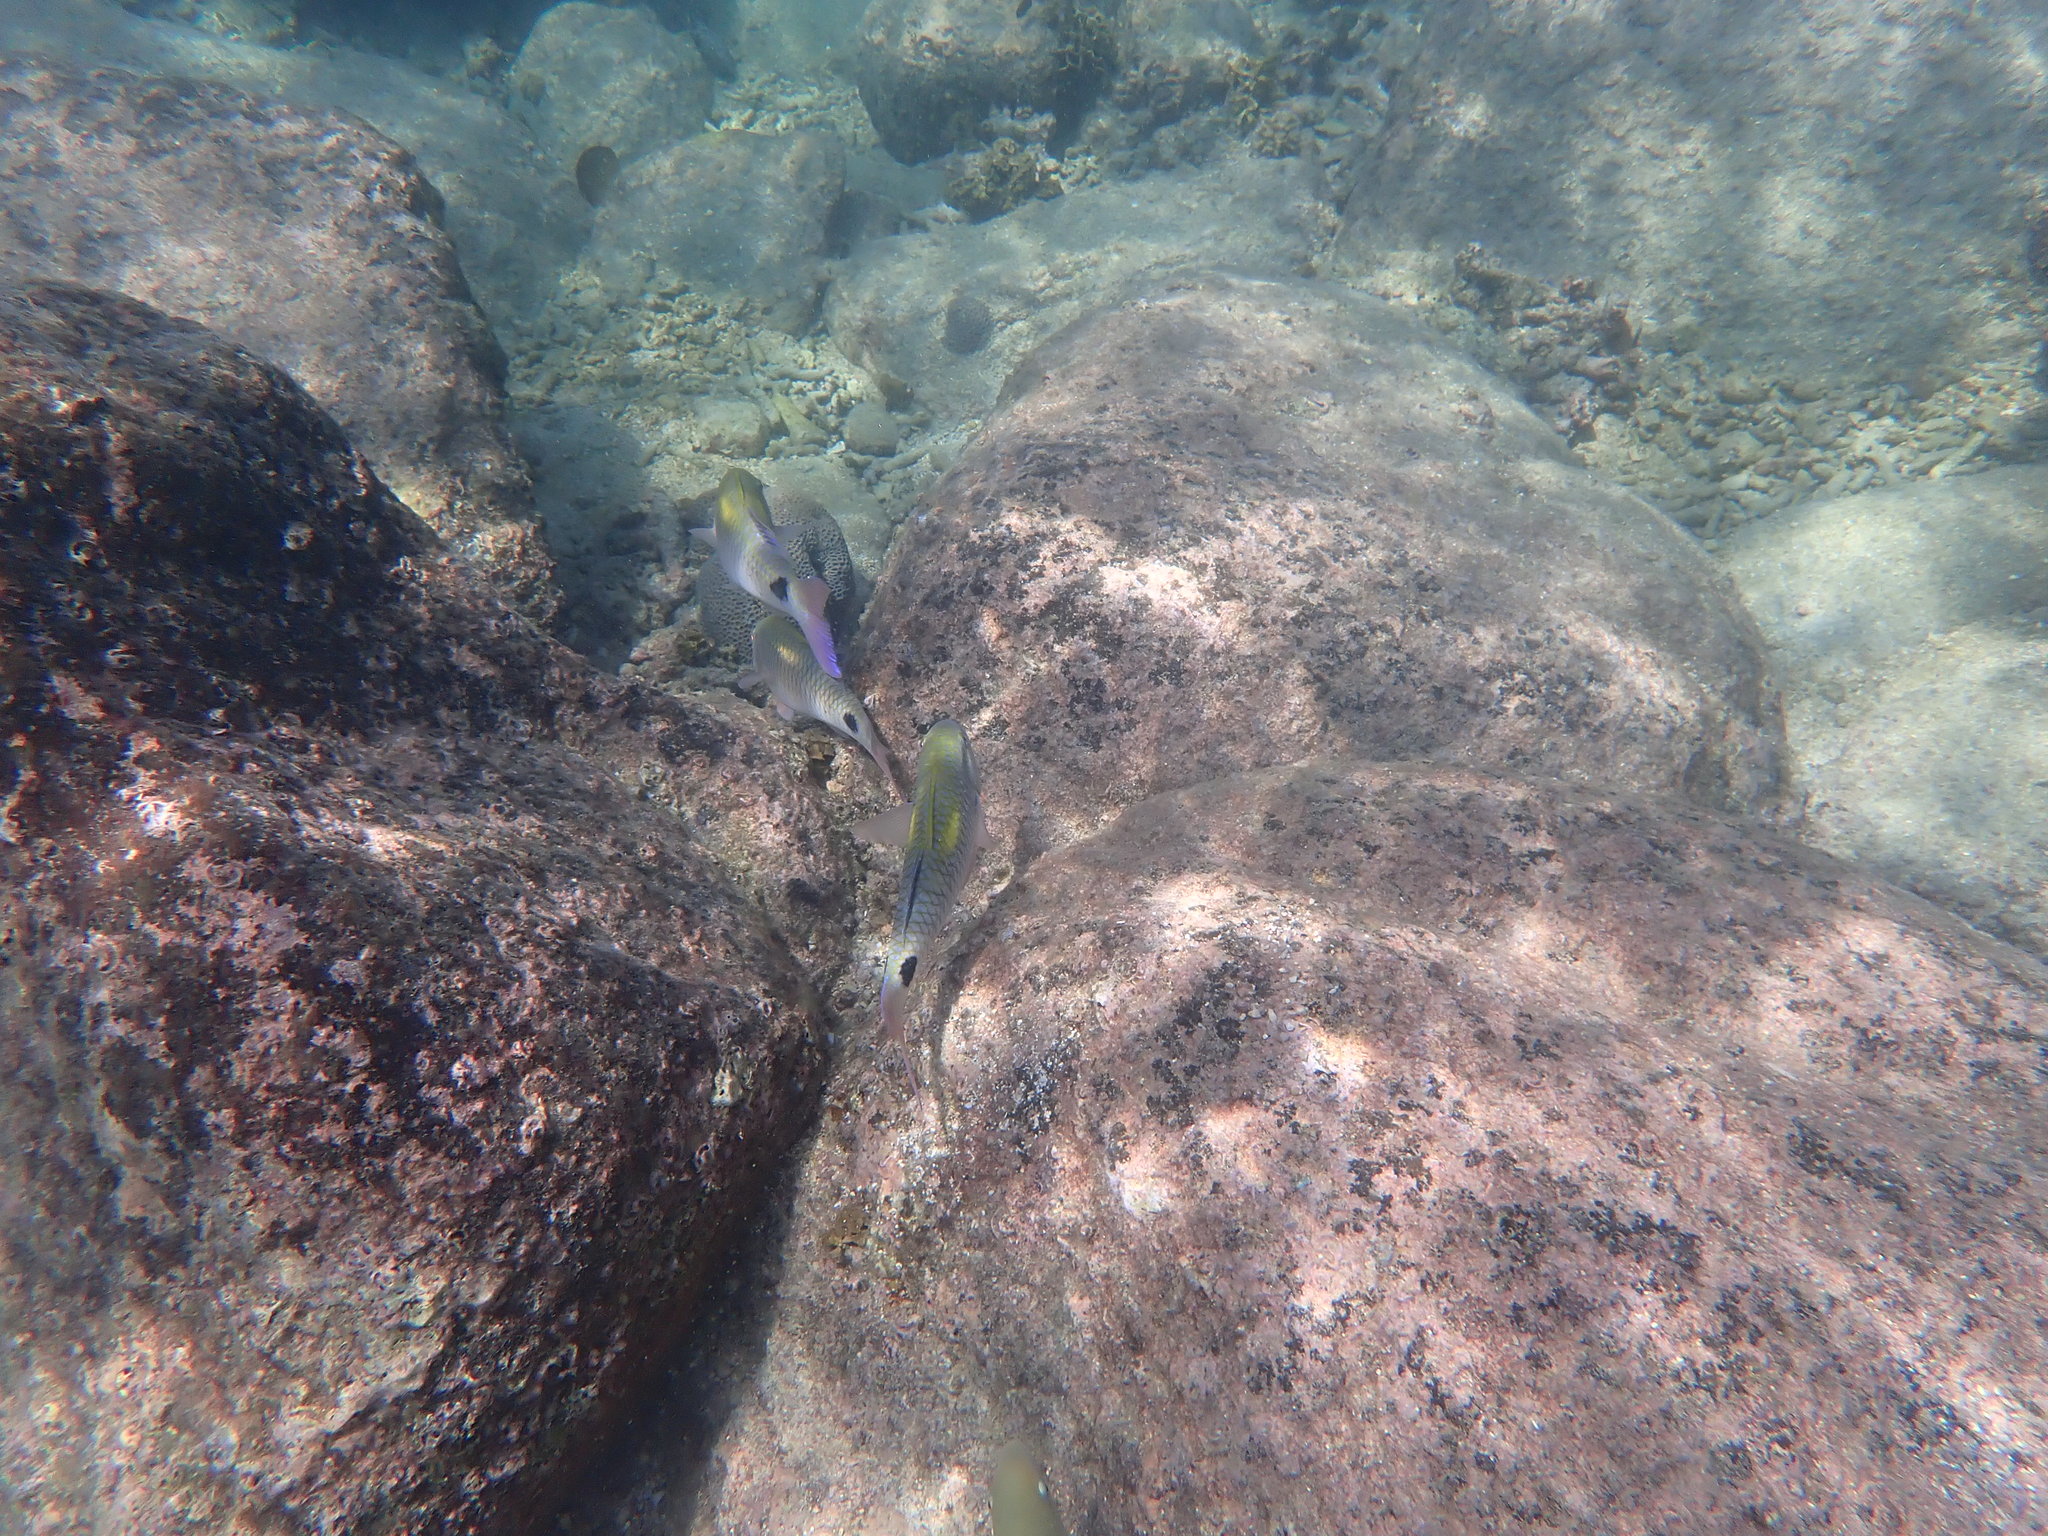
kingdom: Animalia
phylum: Chordata
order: Perciformes
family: Mullidae
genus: Parupeneus
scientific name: Parupeneus indicus
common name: Indian goatfish
